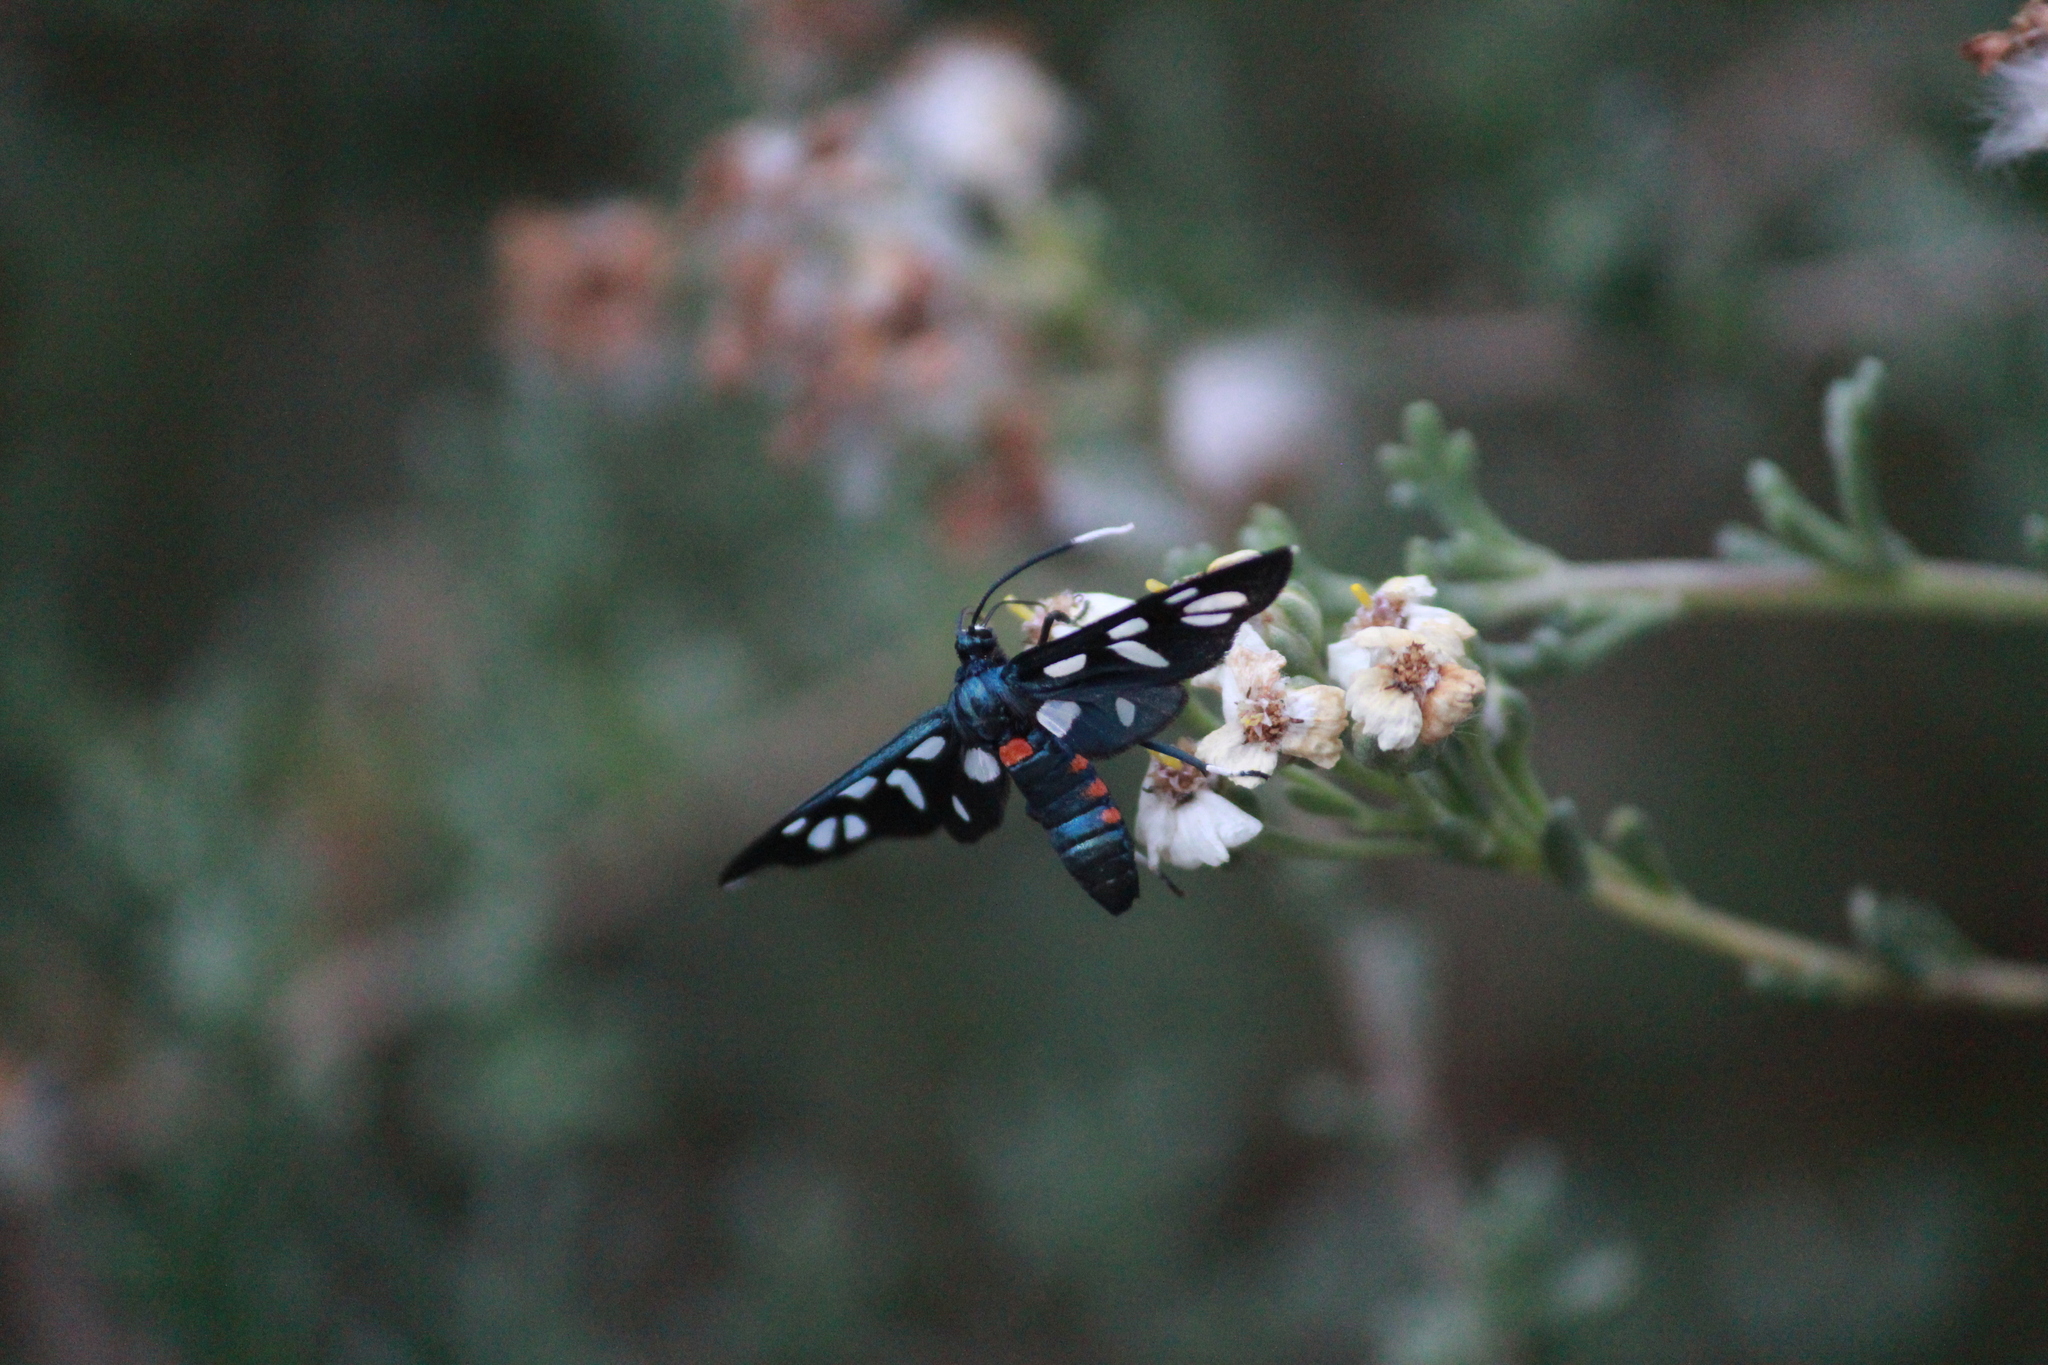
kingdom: Animalia
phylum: Arthropoda
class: Insecta
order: Lepidoptera
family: Erebidae
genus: Amata
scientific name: Amata kuhlweini
